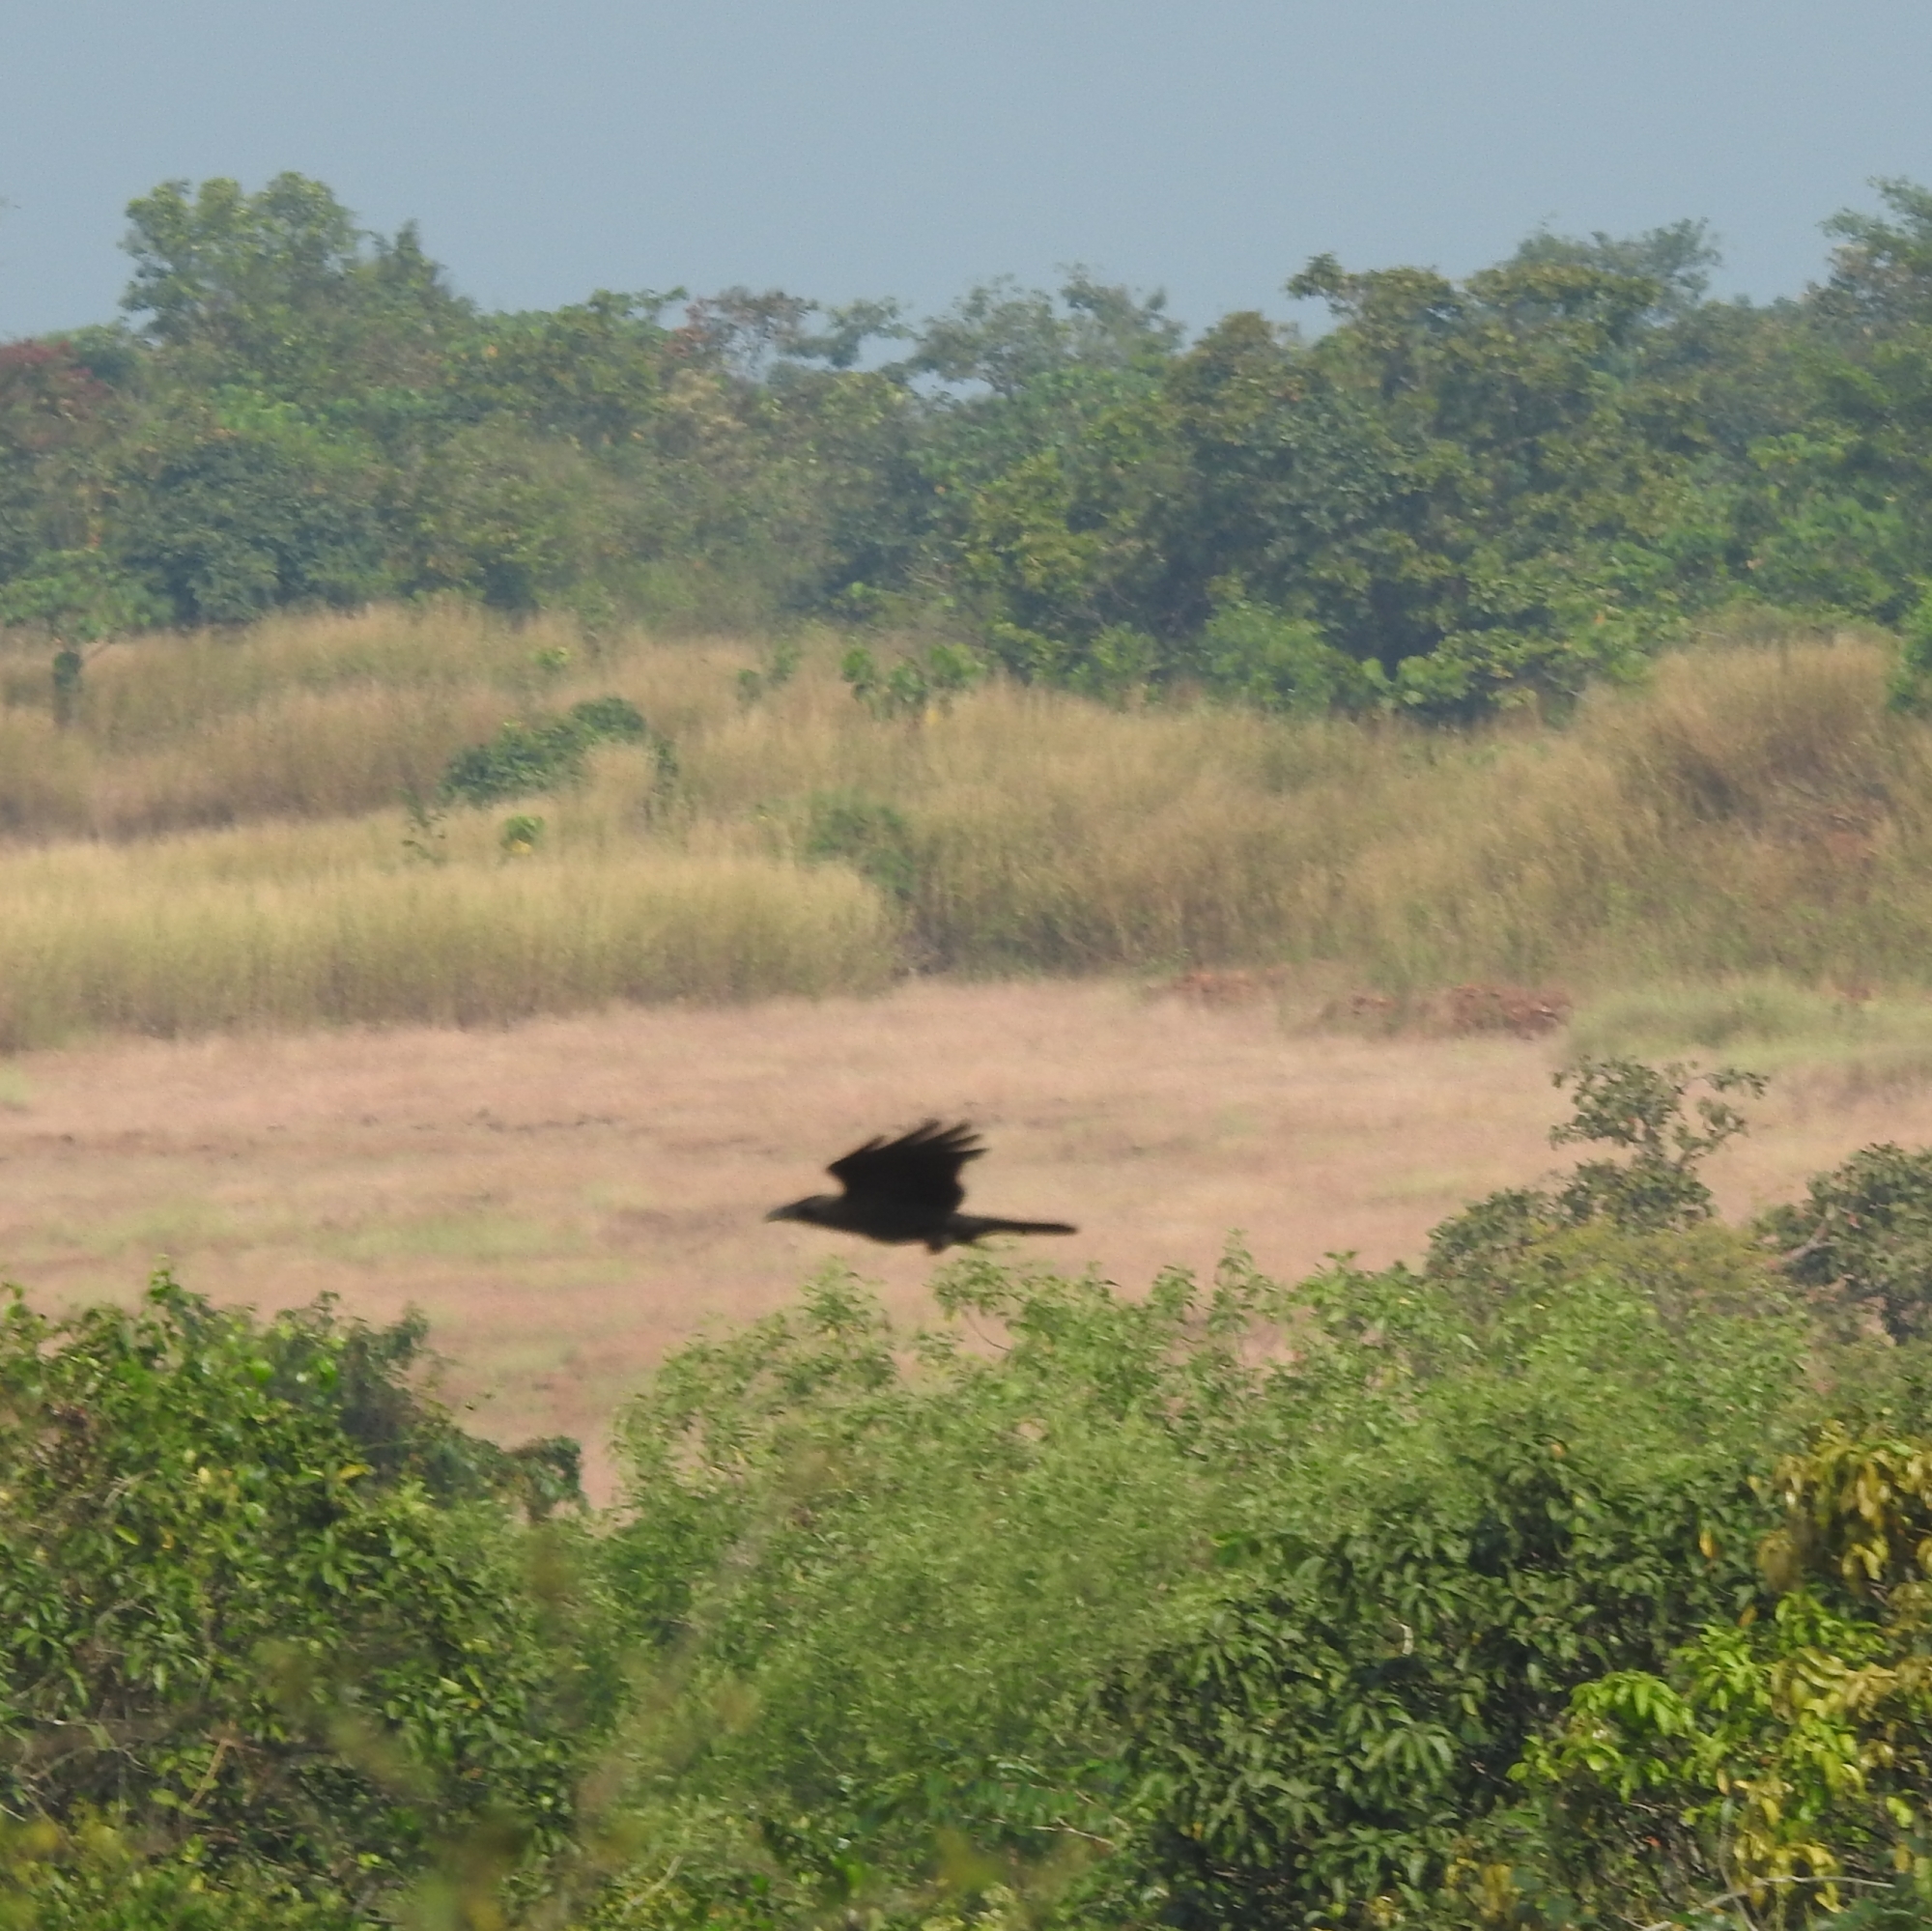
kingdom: Animalia
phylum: Chordata
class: Aves
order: Passeriformes
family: Corvidae
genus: Corvus
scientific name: Corvus splendens
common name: House crow
